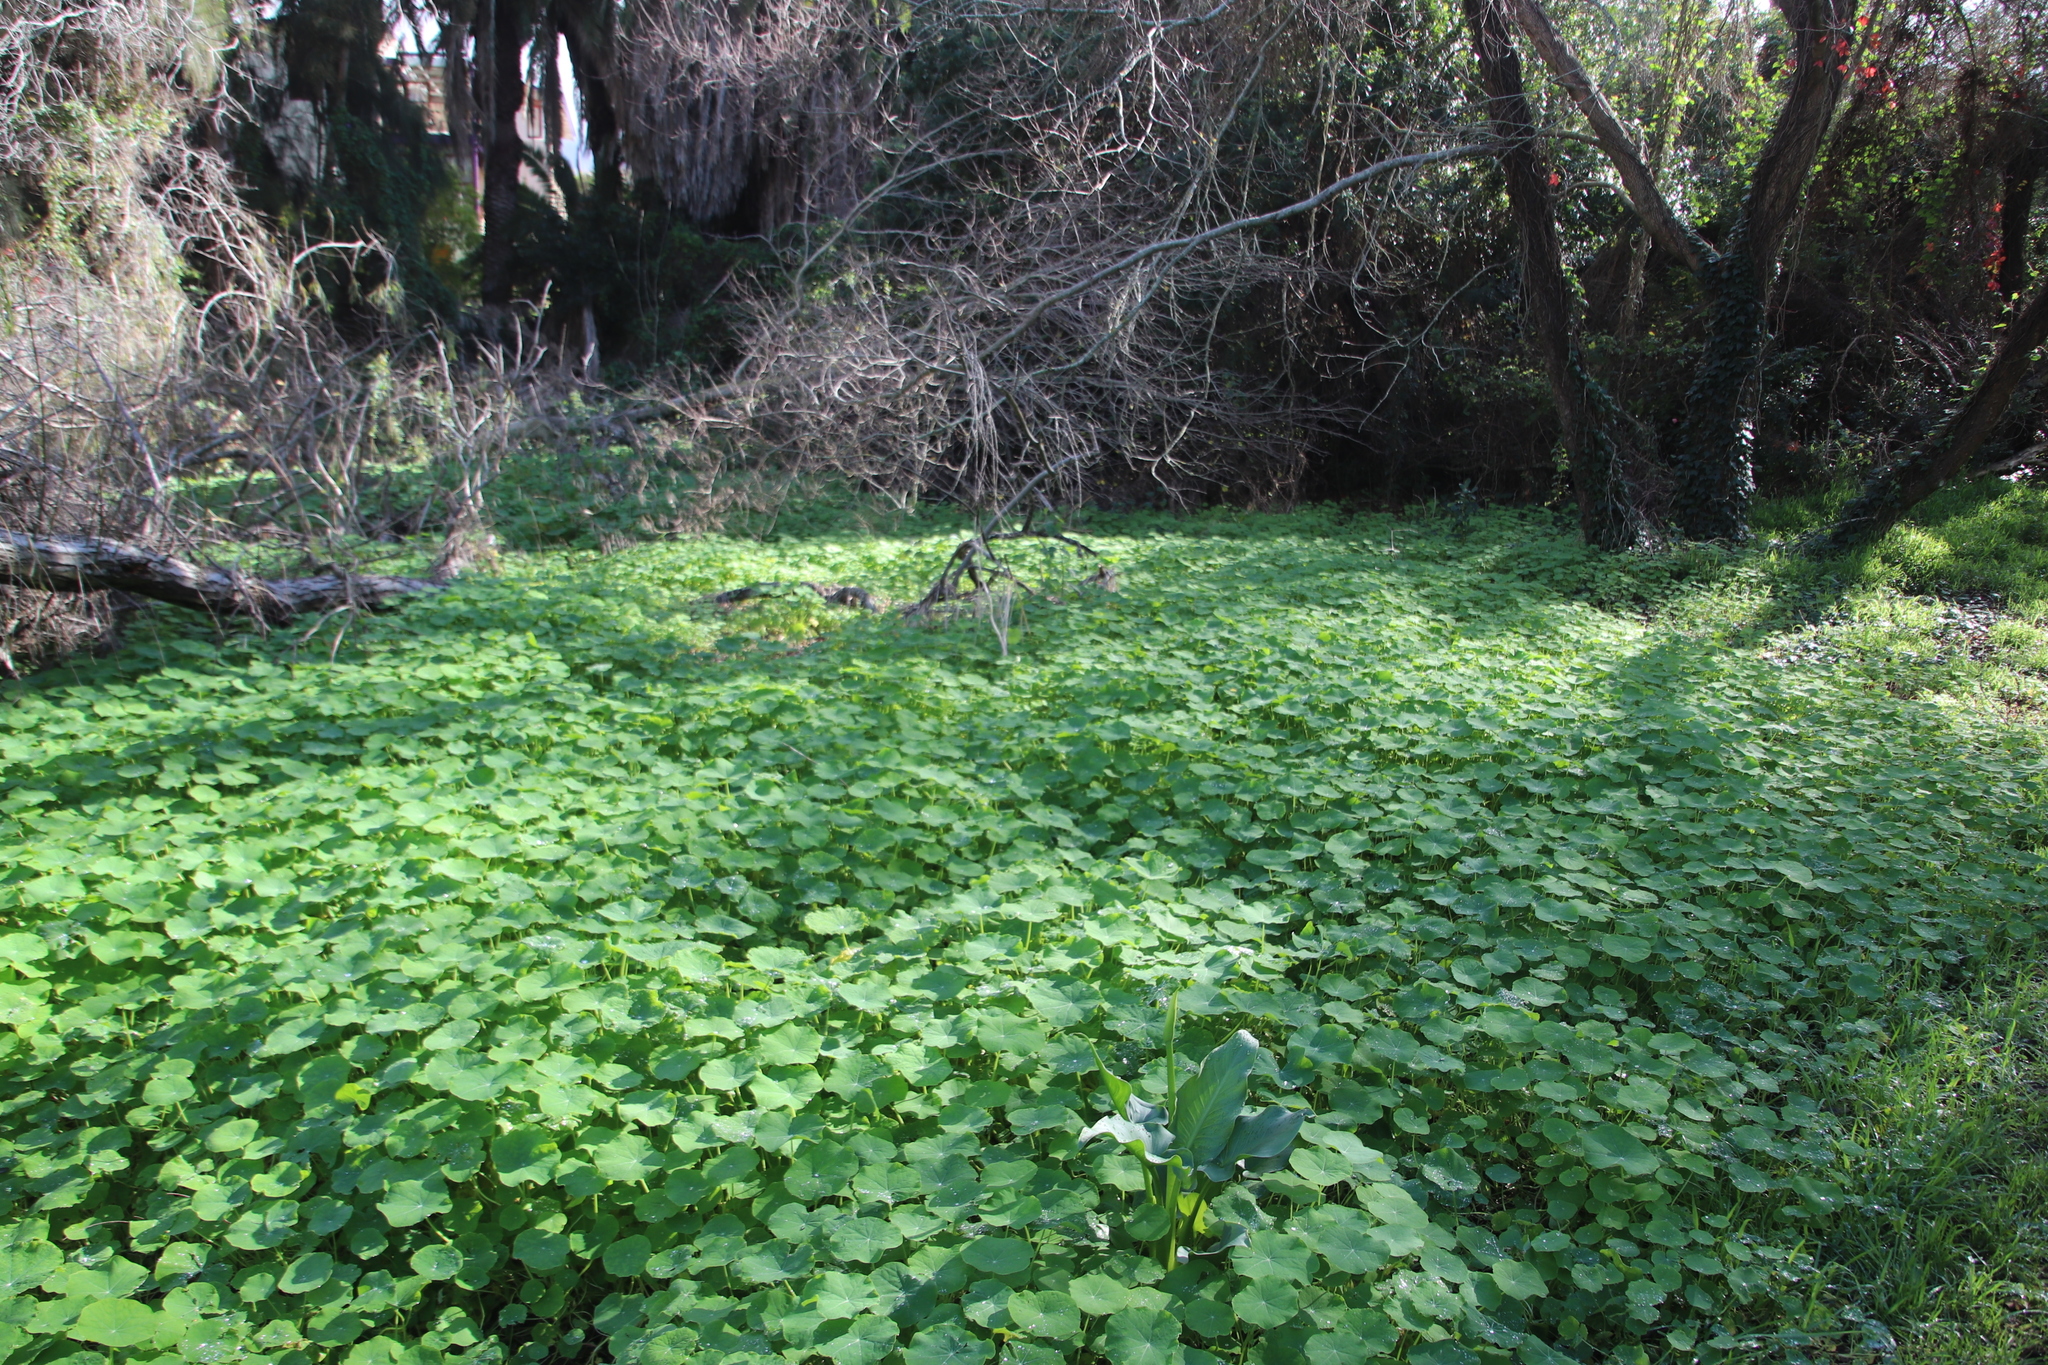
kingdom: Plantae
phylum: Tracheophyta
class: Magnoliopsida
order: Brassicales
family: Tropaeolaceae
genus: Tropaeolum
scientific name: Tropaeolum majus
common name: Nasturtium
